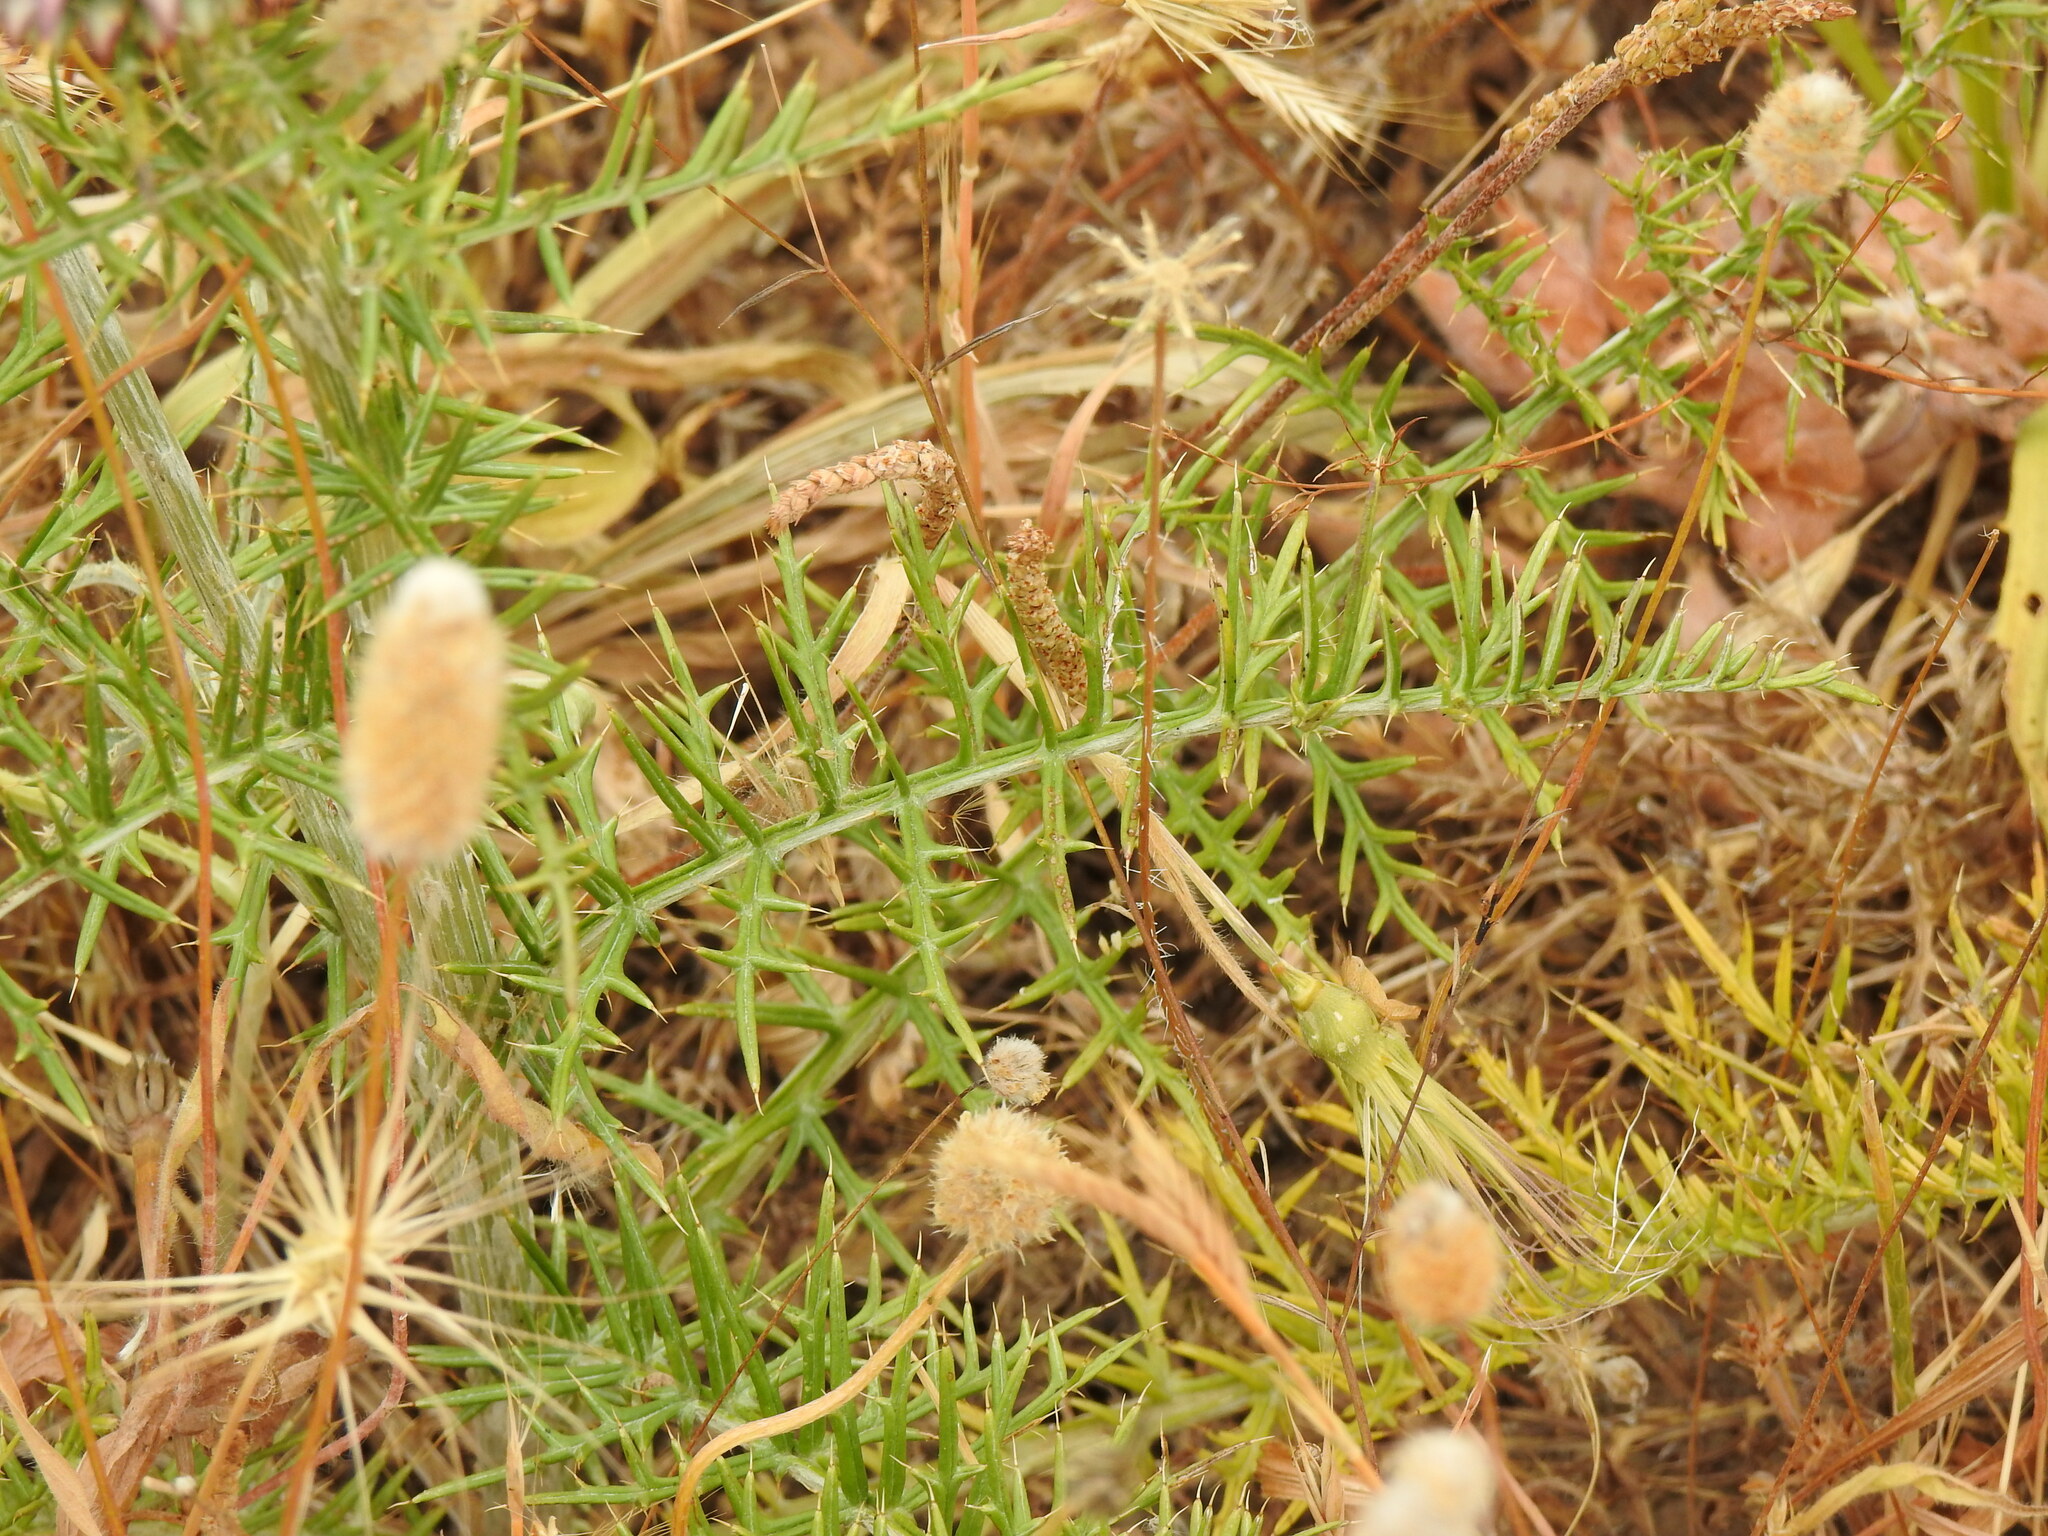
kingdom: Plantae
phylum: Tracheophyta
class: Magnoliopsida
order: Asterales
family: Asteraceae
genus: Cynara
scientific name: Cynara humilis
